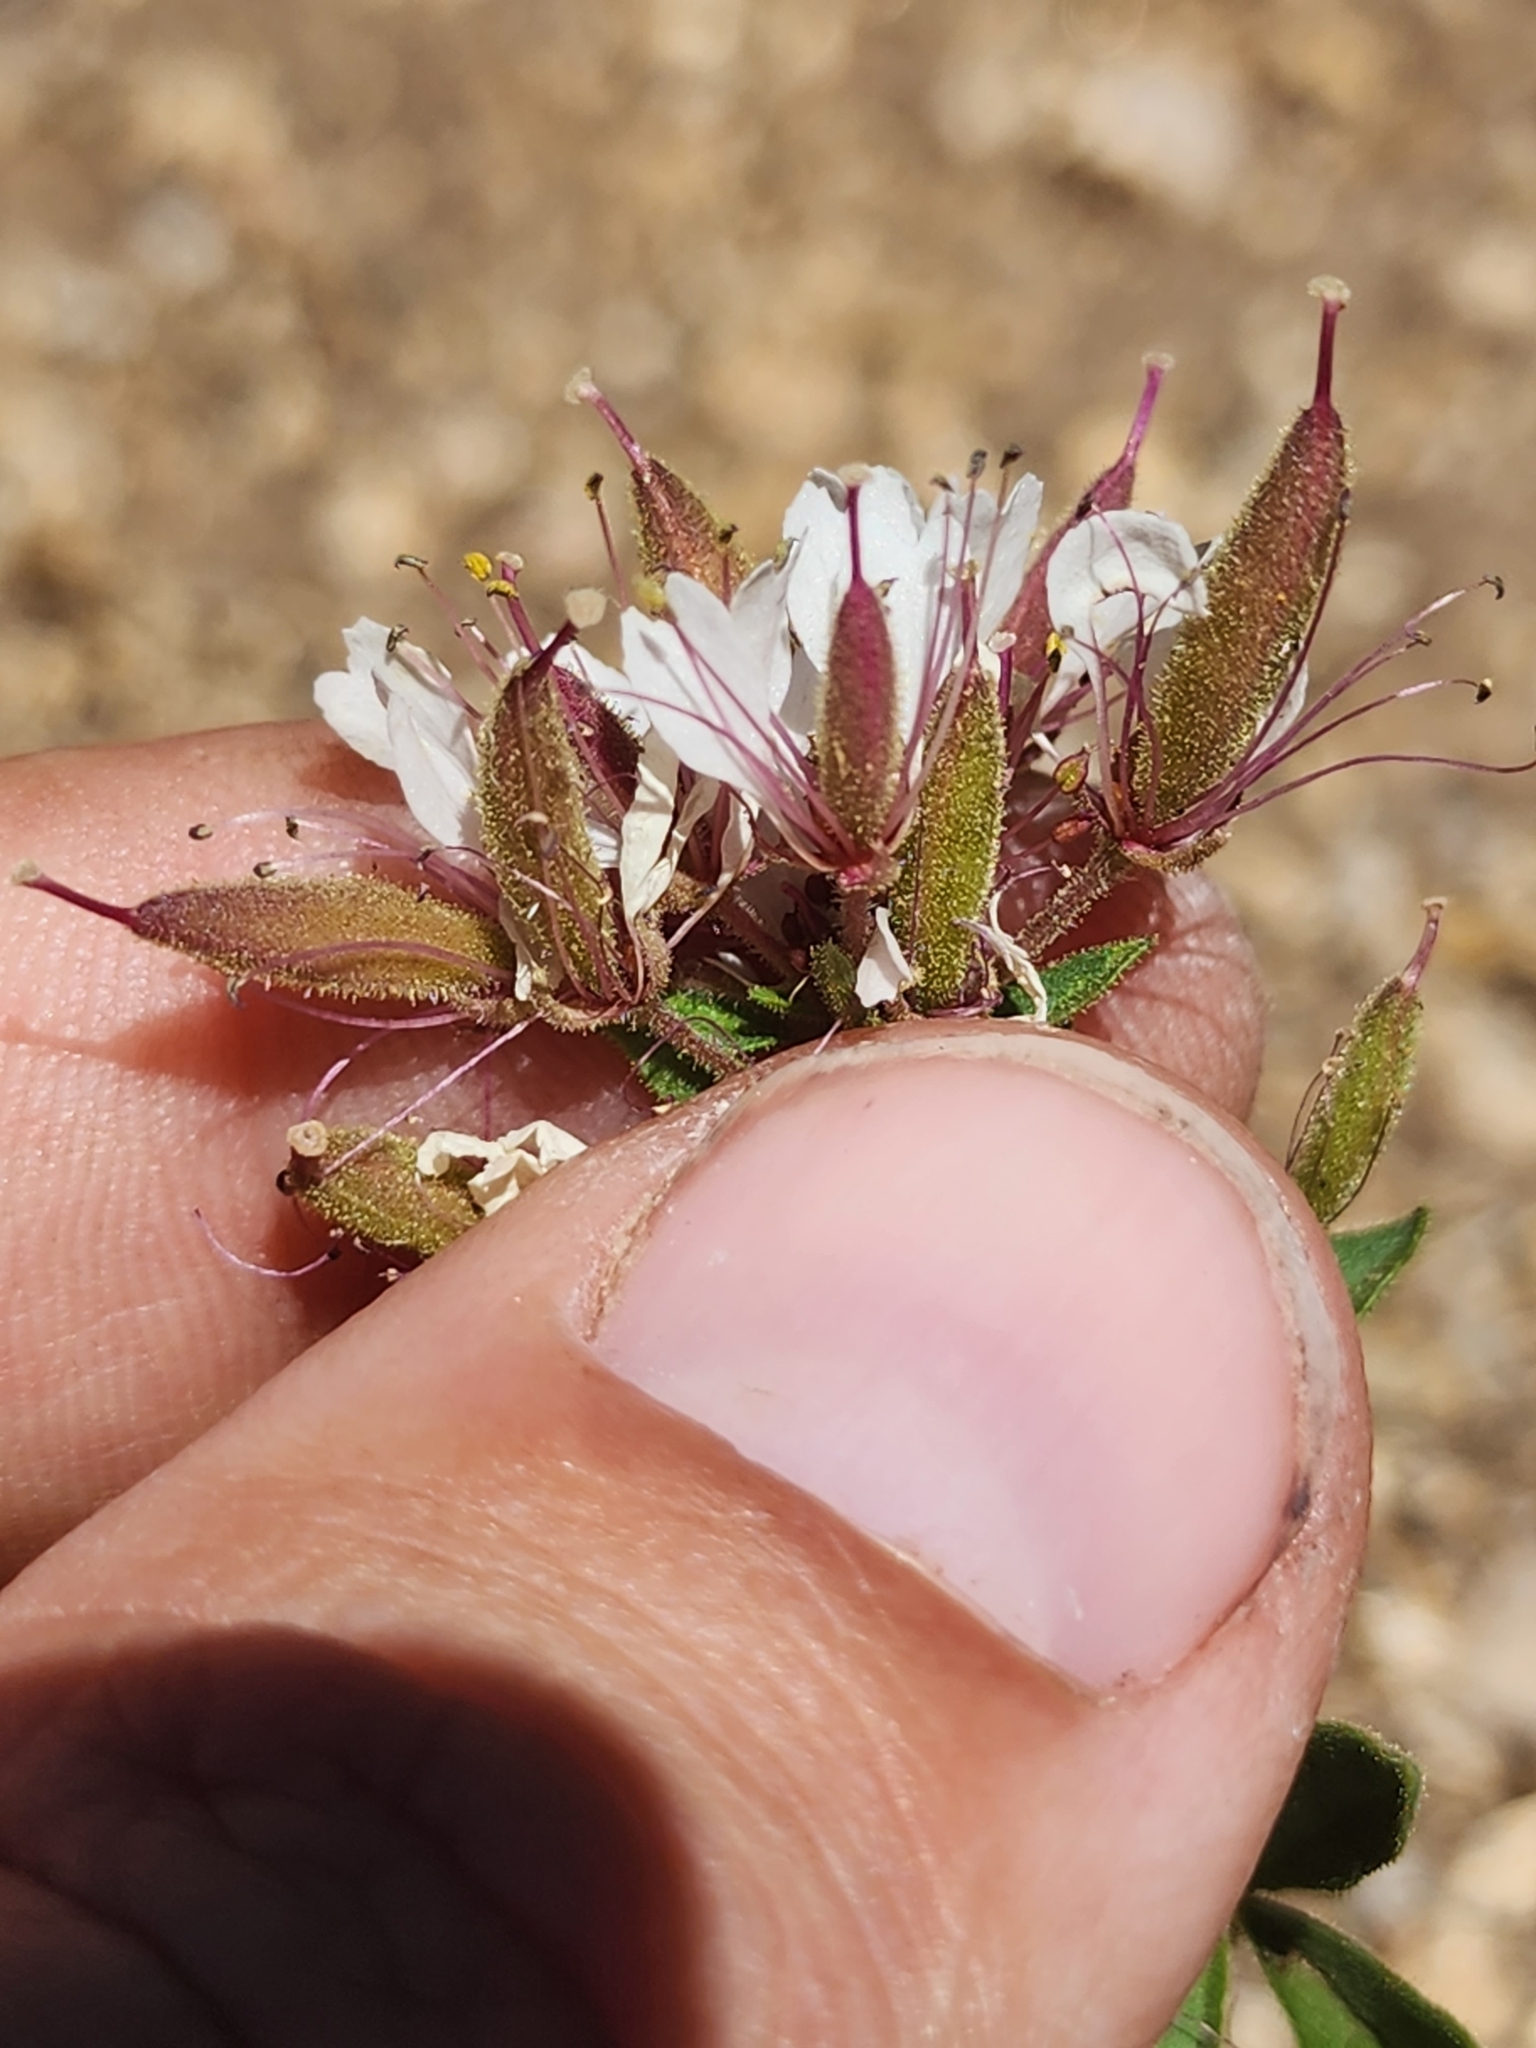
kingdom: Plantae
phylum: Tracheophyta
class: Magnoliopsida
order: Brassicales
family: Cleomaceae
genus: Polanisia
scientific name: Polanisia dodecandra
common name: Clammyweed
